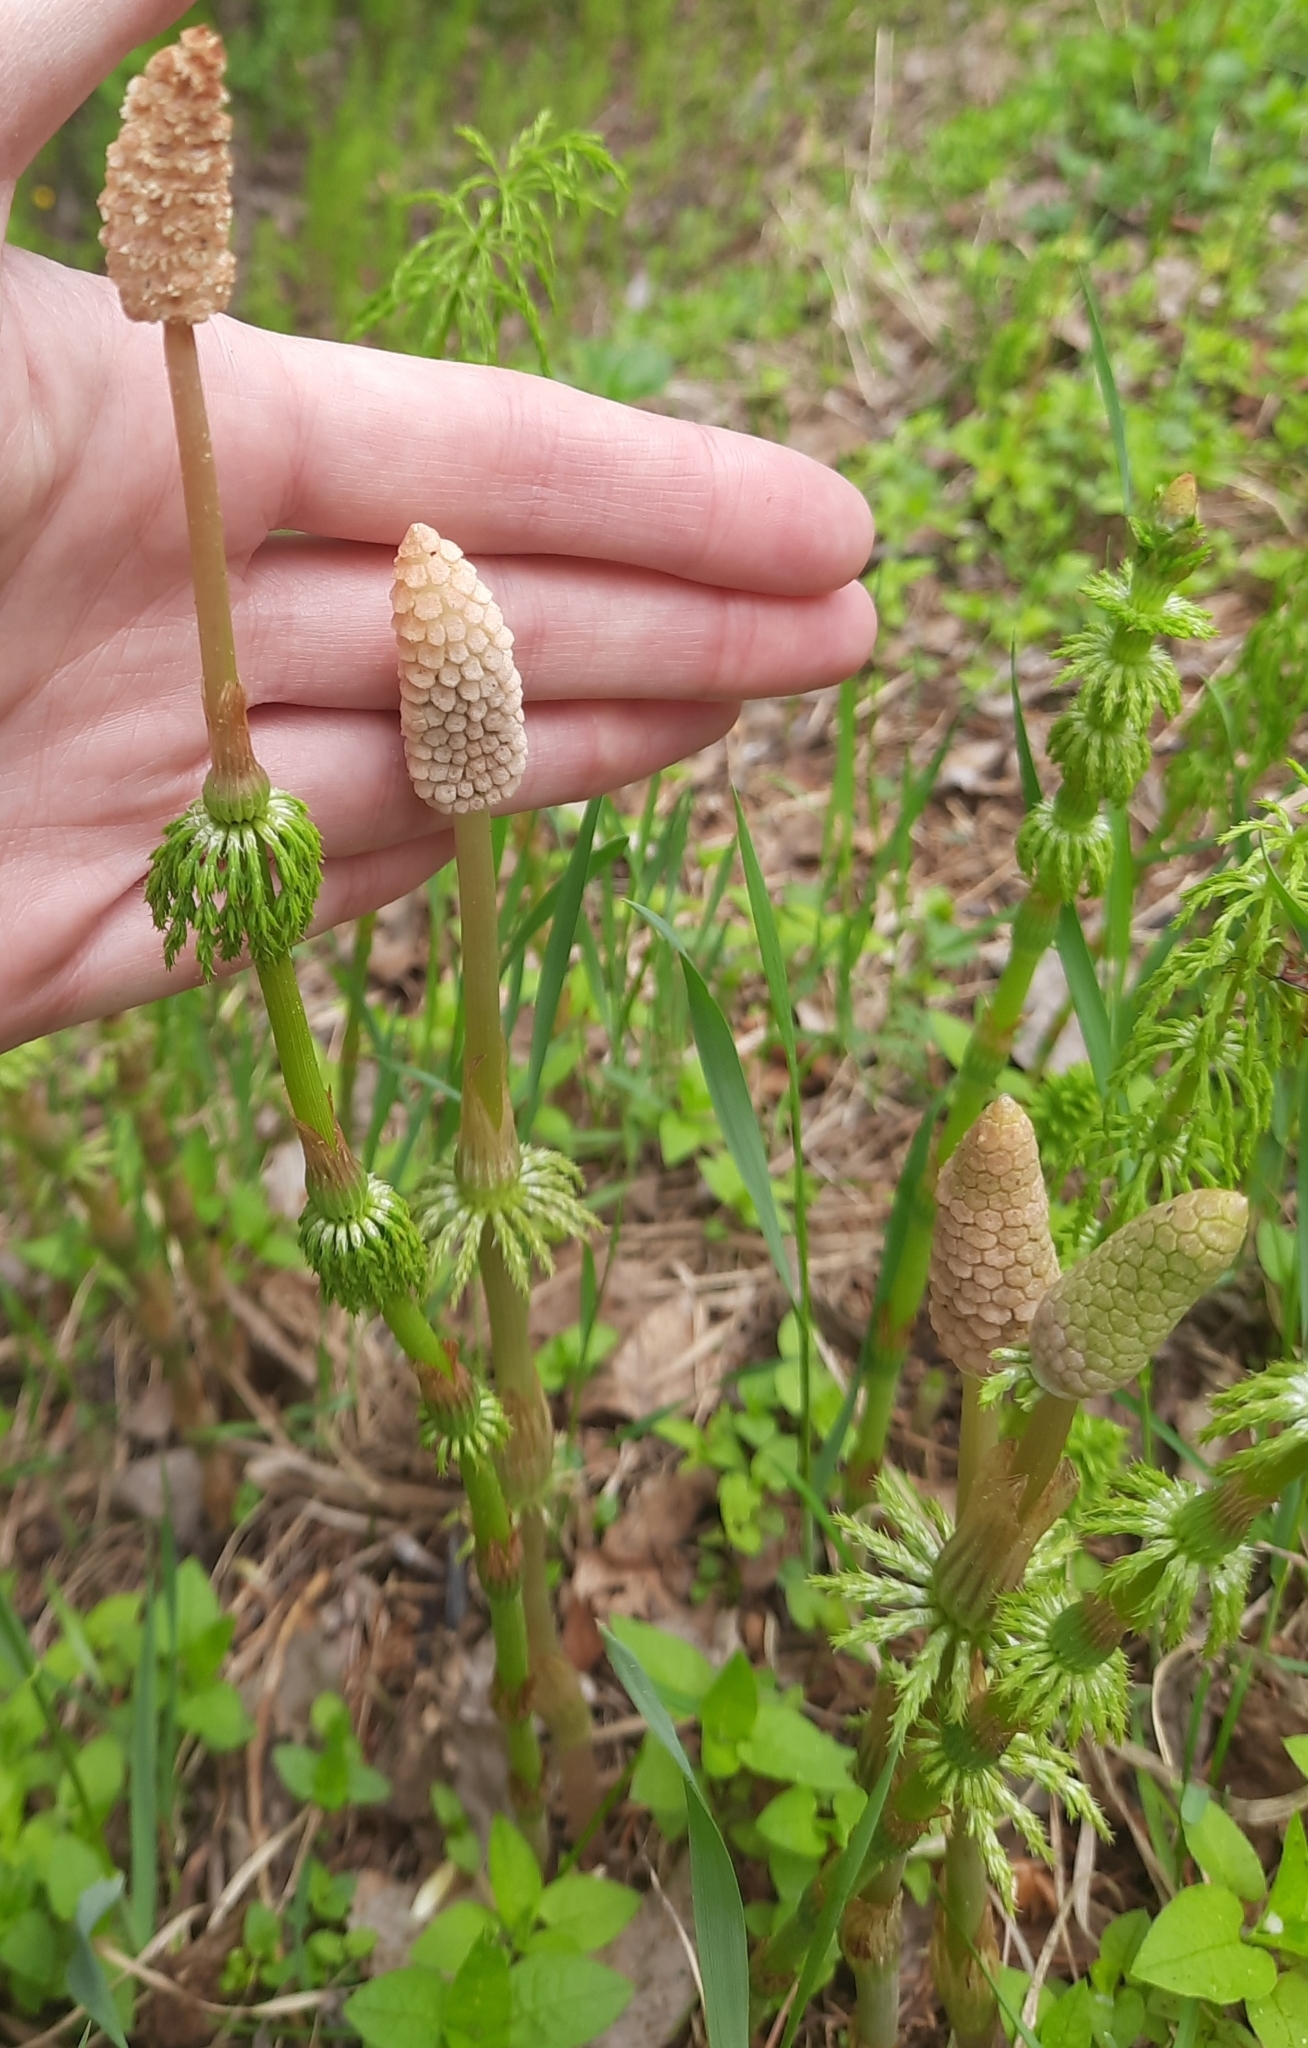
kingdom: Plantae
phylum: Tracheophyta
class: Polypodiopsida
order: Equisetales
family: Equisetaceae
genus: Equisetum
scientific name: Equisetum sylvaticum
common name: Wood horsetail
